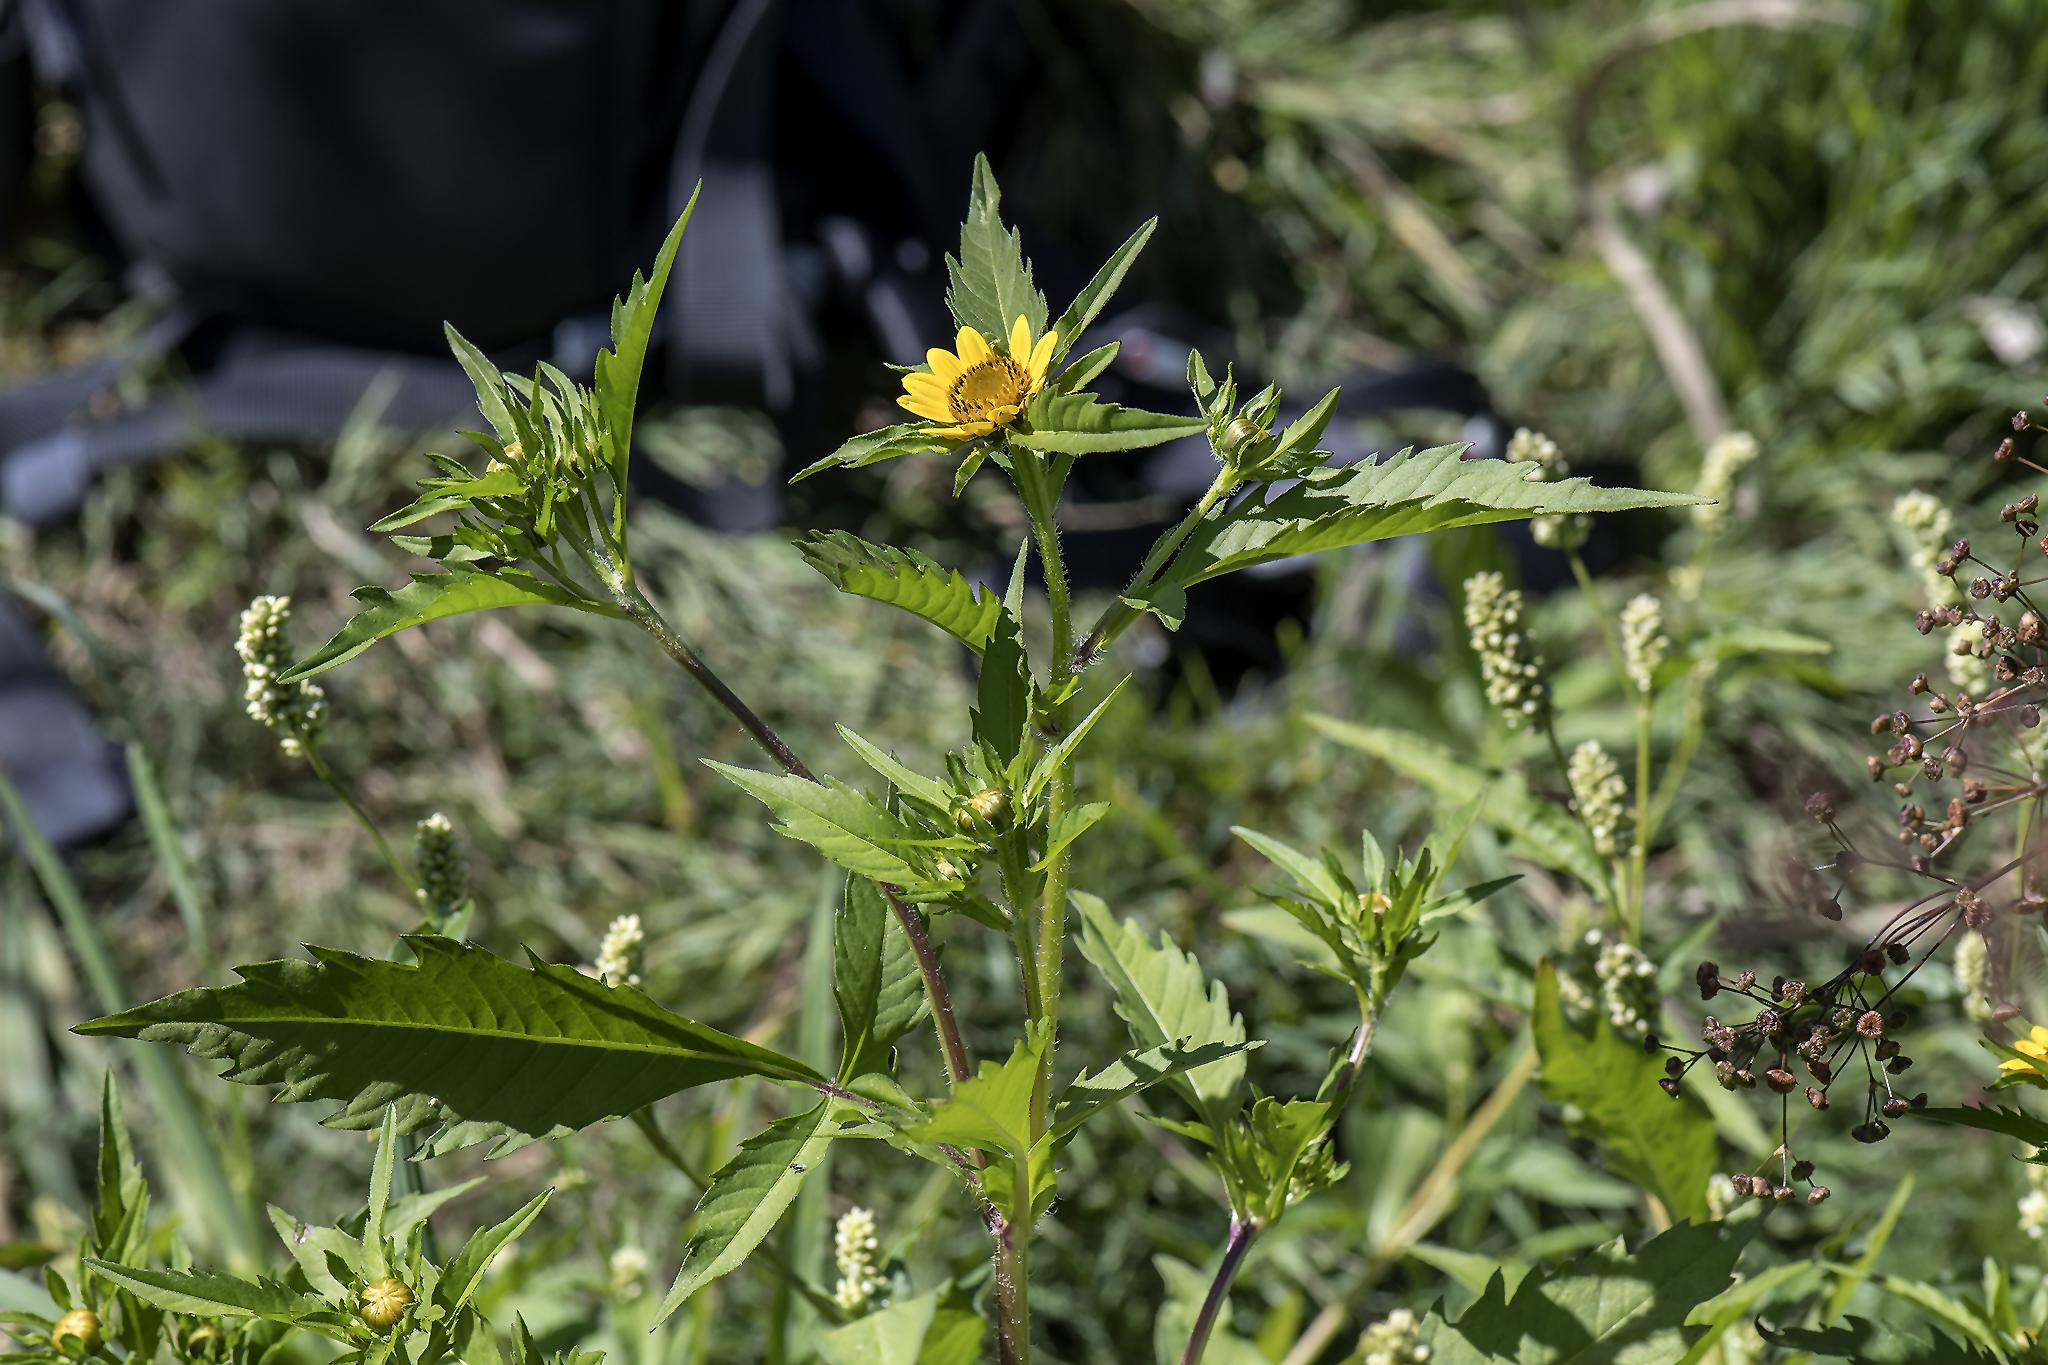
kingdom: Plantae
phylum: Tracheophyta
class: Magnoliopsida
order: Asterales
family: Asteraceae
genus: Bidens
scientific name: Bidens amplissima
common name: Vancouver island beggarticks
